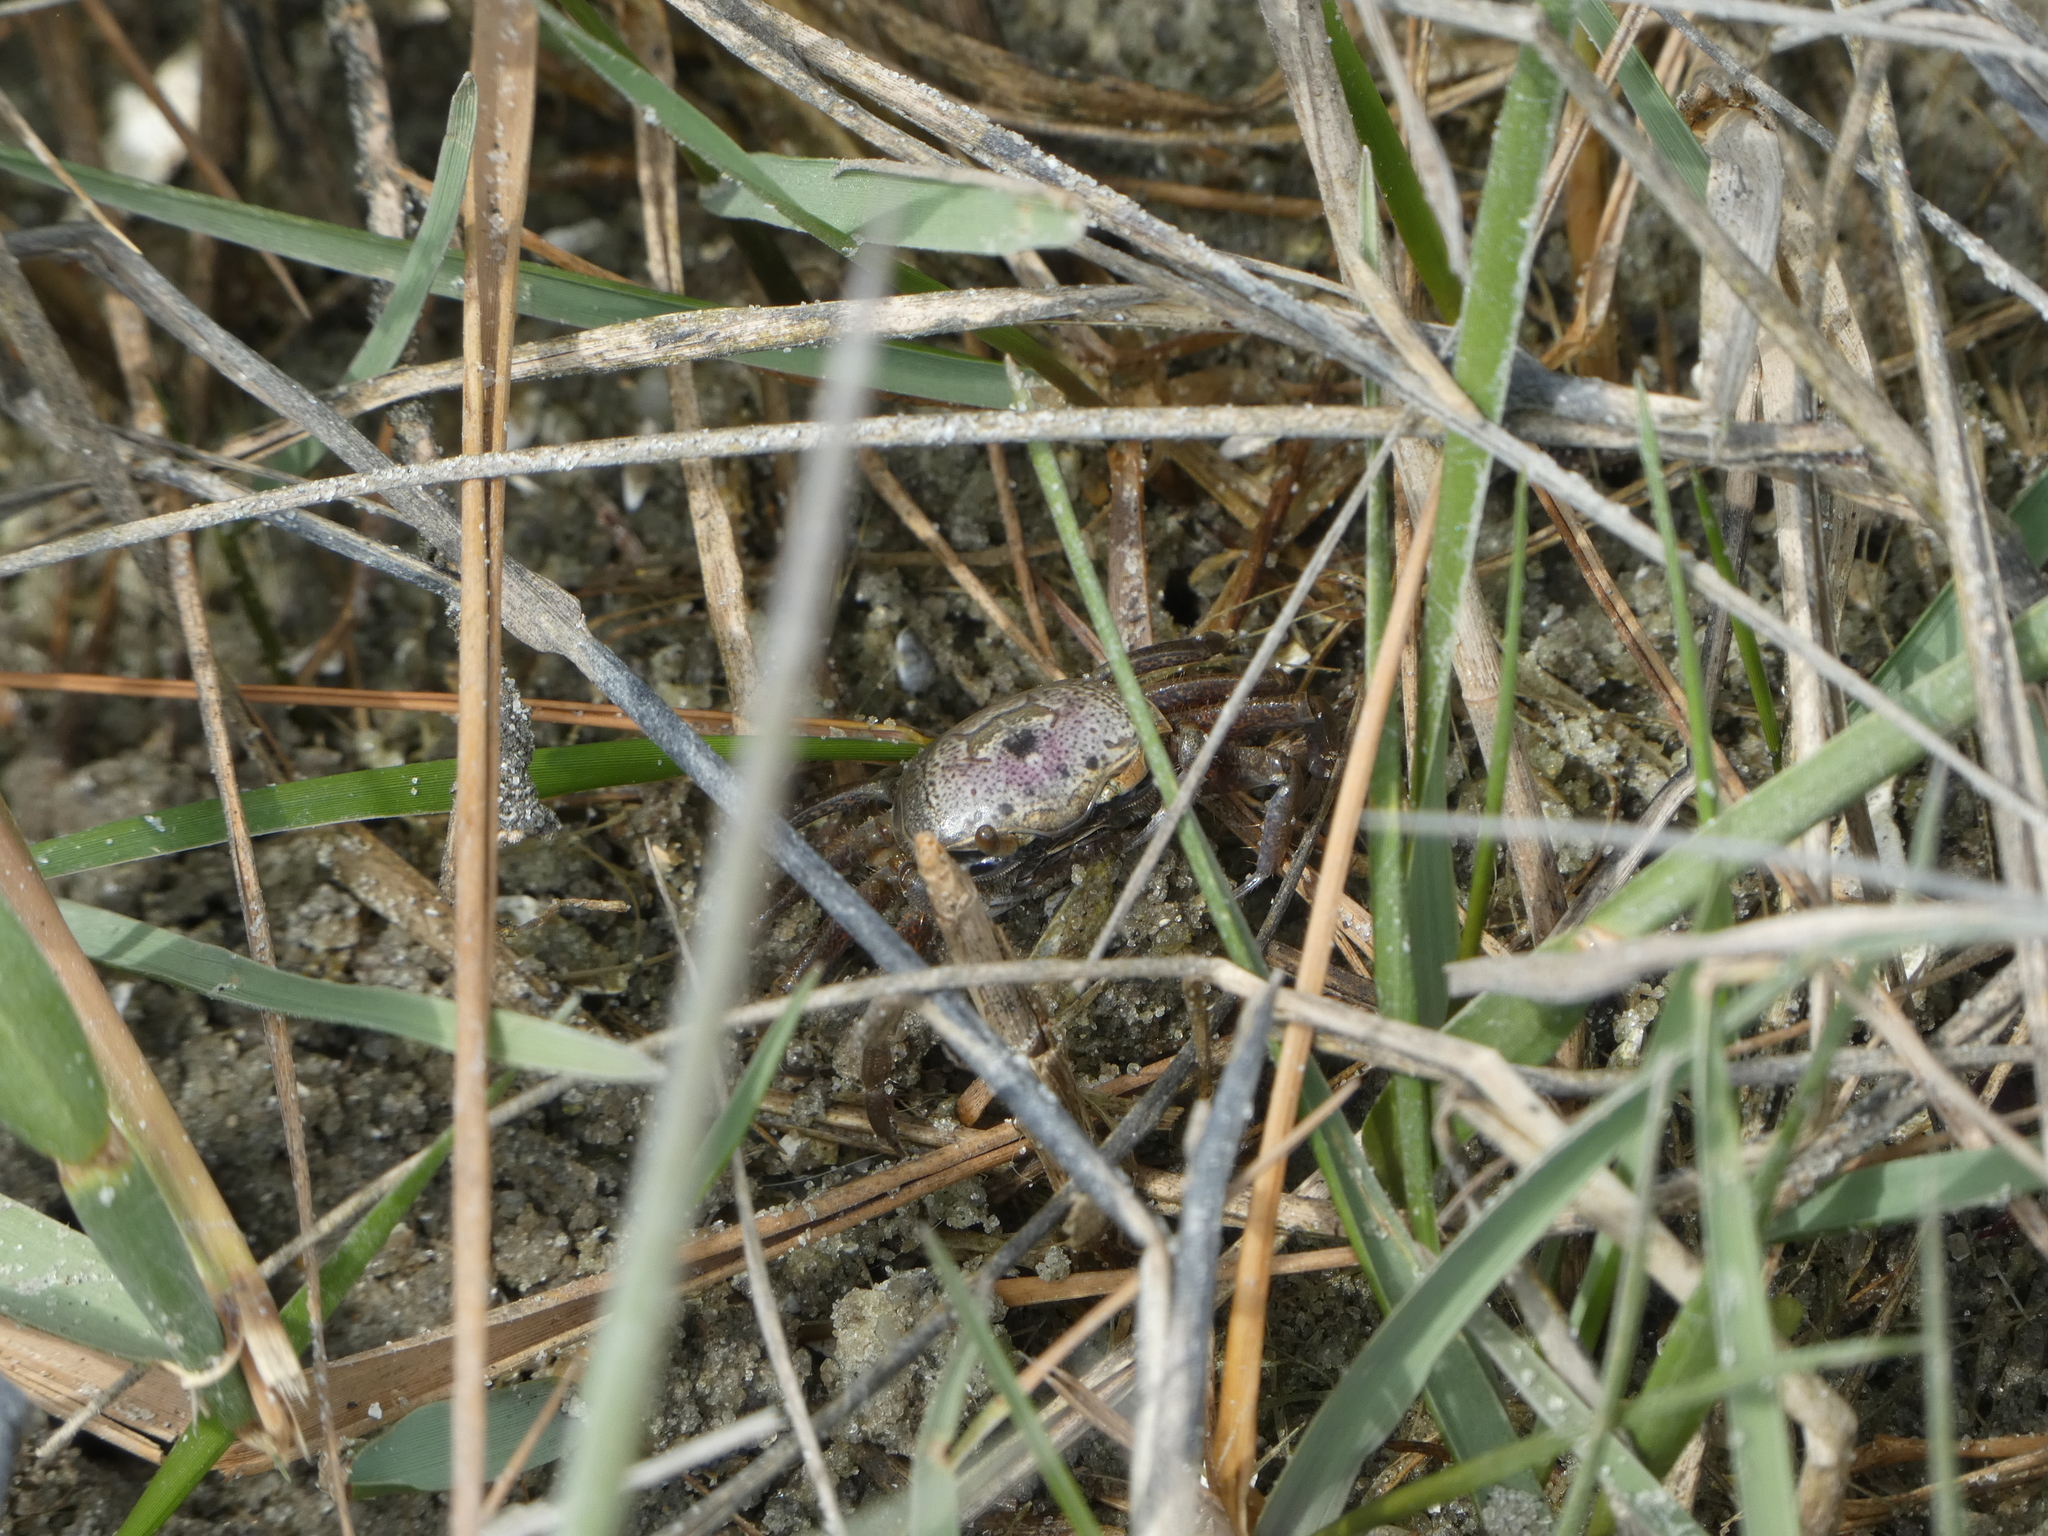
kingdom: Animalia
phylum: Arthropoda
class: Malacostraca
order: Decapoda
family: Ocypodidae
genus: Leptuca
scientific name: Leptuca pugilator
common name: Atlantic sand fiddler crab
